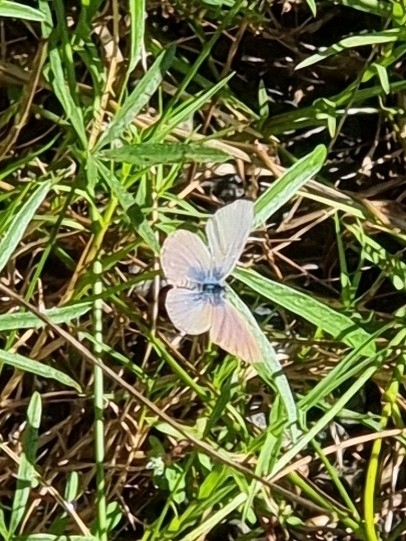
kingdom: Animalia
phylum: Arthropoda
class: Insecta
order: Lepidoptera
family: Lycaenidae
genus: Zizina
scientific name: Zizina labradus
